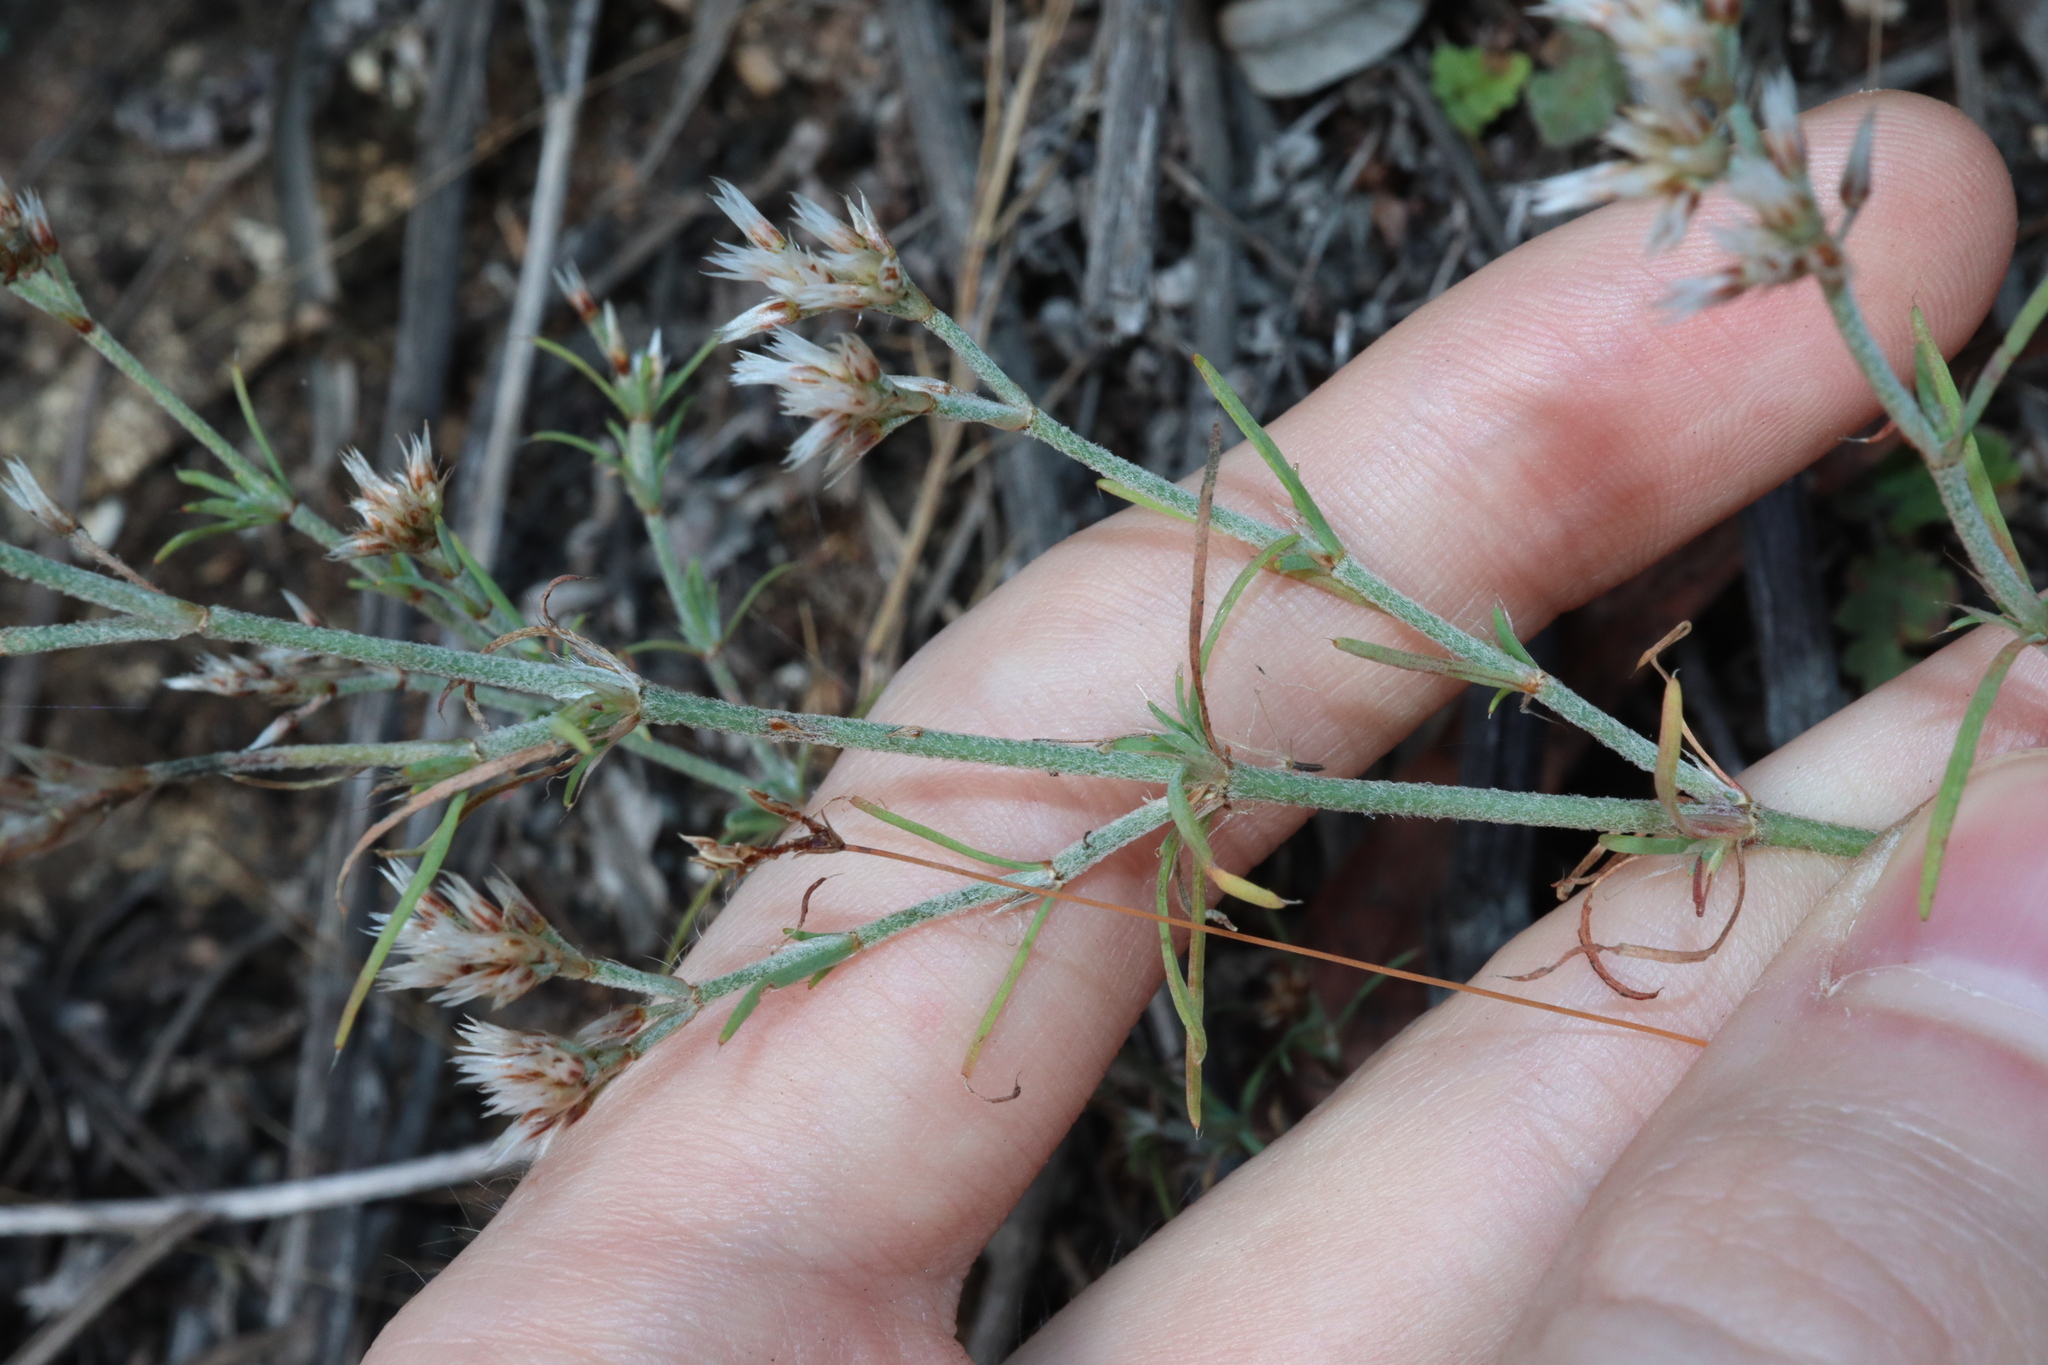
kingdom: Plantae
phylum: Tracheophyta
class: Magnoliopsida
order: Caryophyllales
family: Caryophyllaceae
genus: Polycarpaea
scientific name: Polycarpaea corymbosa
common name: Oldman's cap
